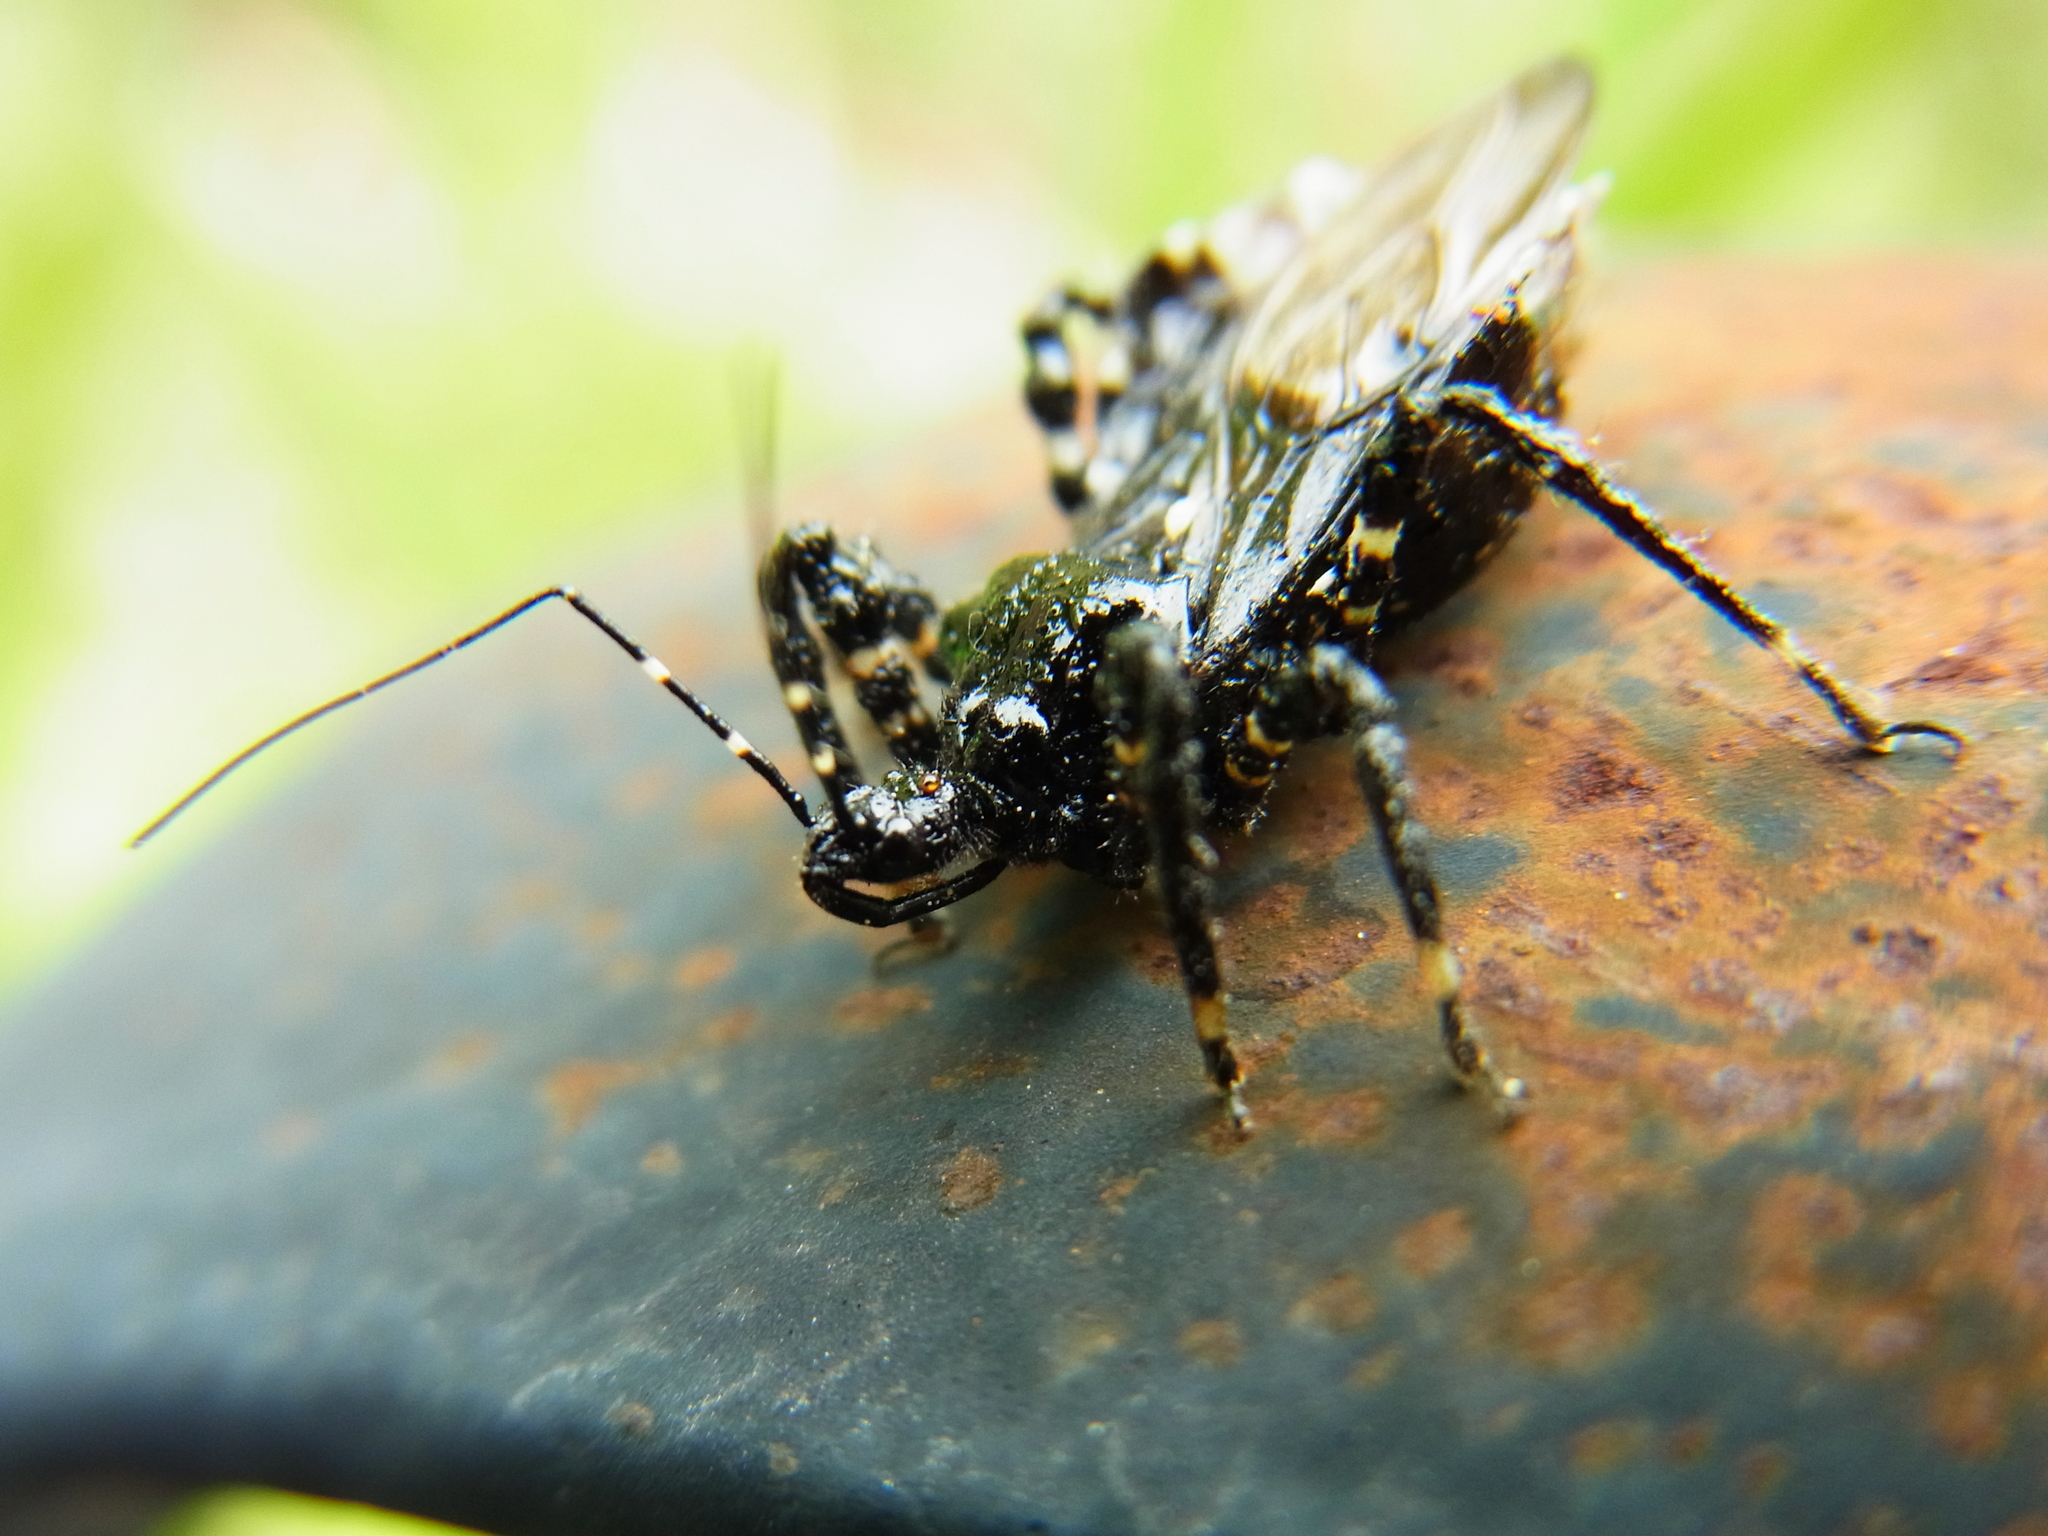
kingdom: Animalia
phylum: Arthropoda
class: Insecta
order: Hemiptera
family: Reduviidae
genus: Velinus
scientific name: Velinus nodipes
